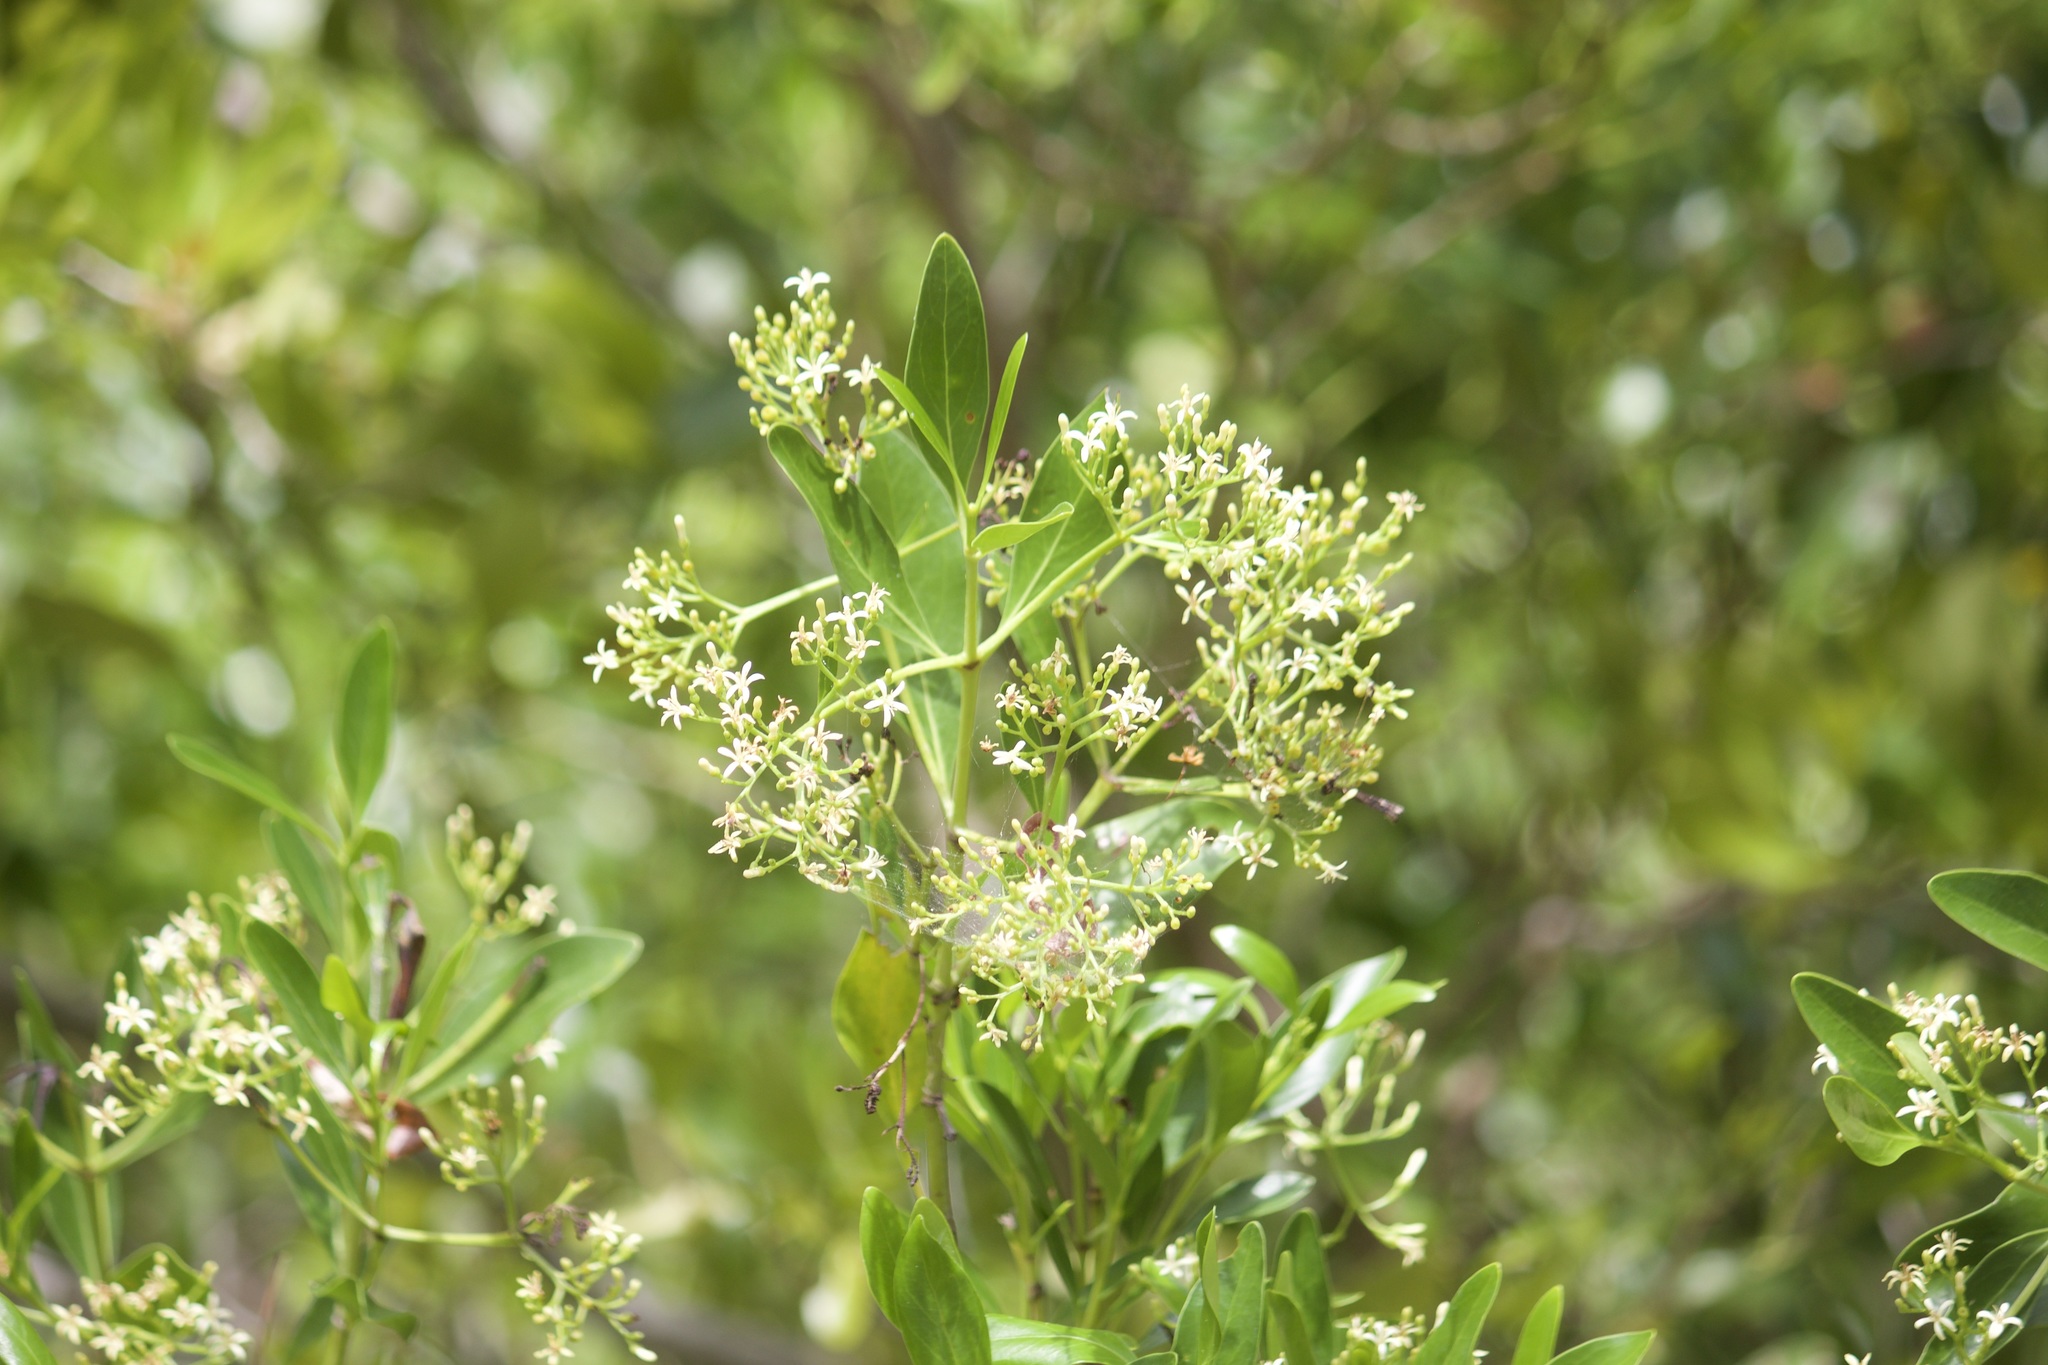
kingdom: Plantae
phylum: Tracheophyta
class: Magnoliopsida
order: Gentianales
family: Rubiaceae
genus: Erithalis
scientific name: Erithalis fruticosa
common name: Candlewood
